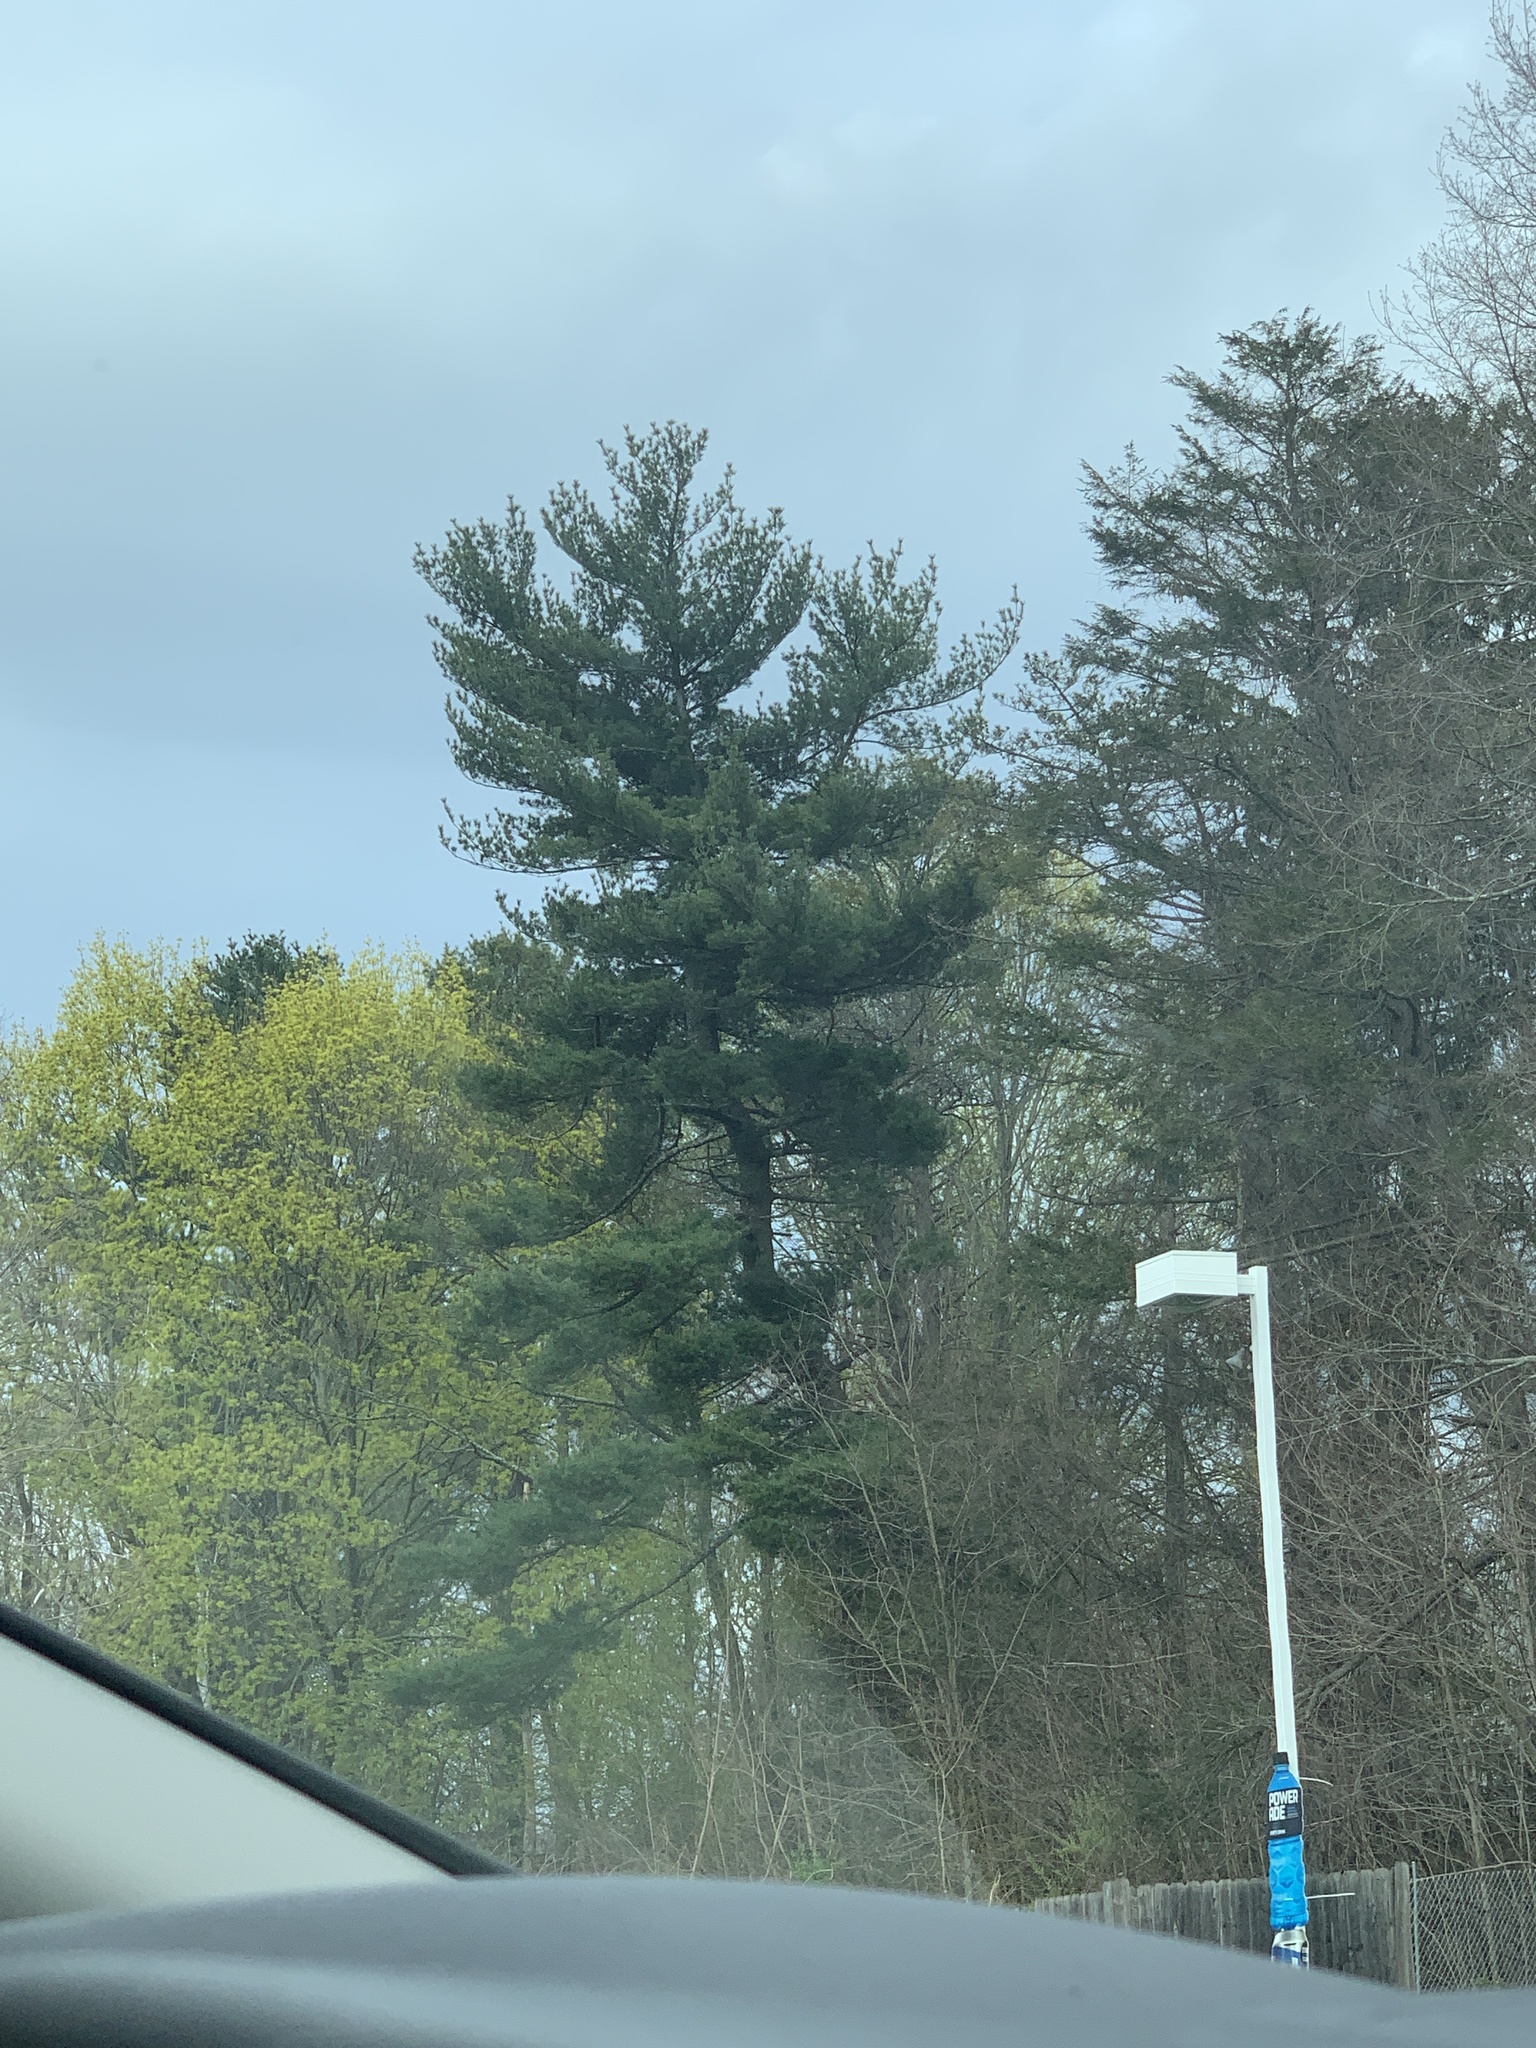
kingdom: Plantae
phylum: Tracheophyta
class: Pinopsida
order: Pinales
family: Pinaceae
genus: Pinus
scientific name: Pinus strobus
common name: Weymouth pine
